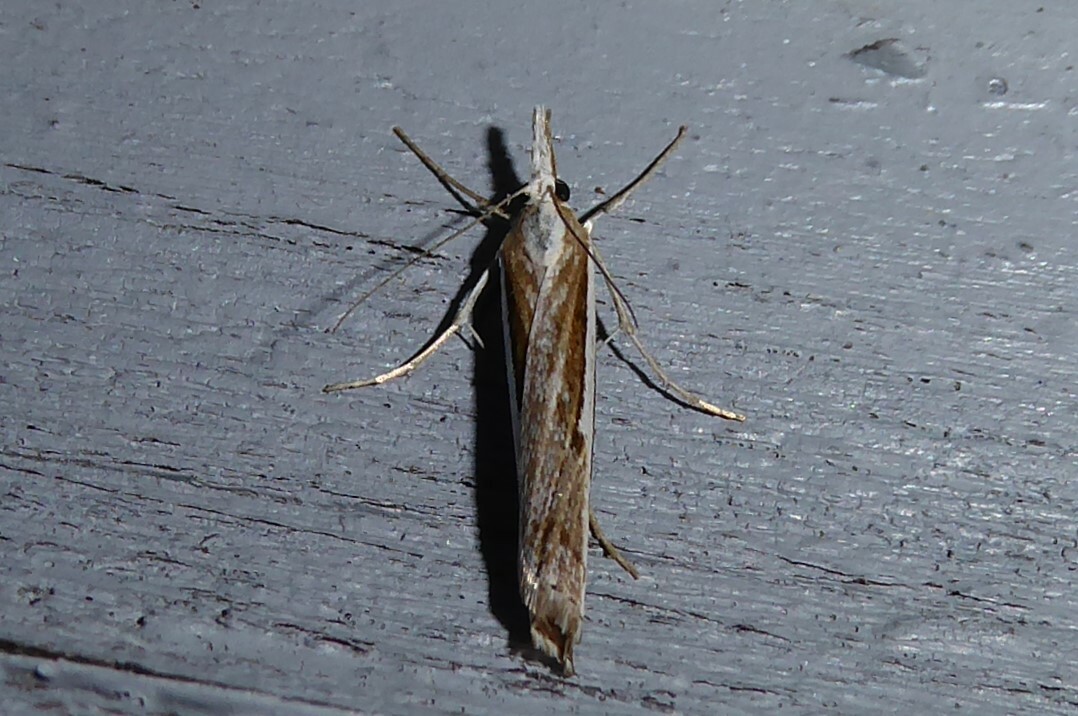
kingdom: Animalia
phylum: Arthropoda
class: Insecta
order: Lepidoptera
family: Crambidae
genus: Orocrambus
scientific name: Orocrambus vittellus
